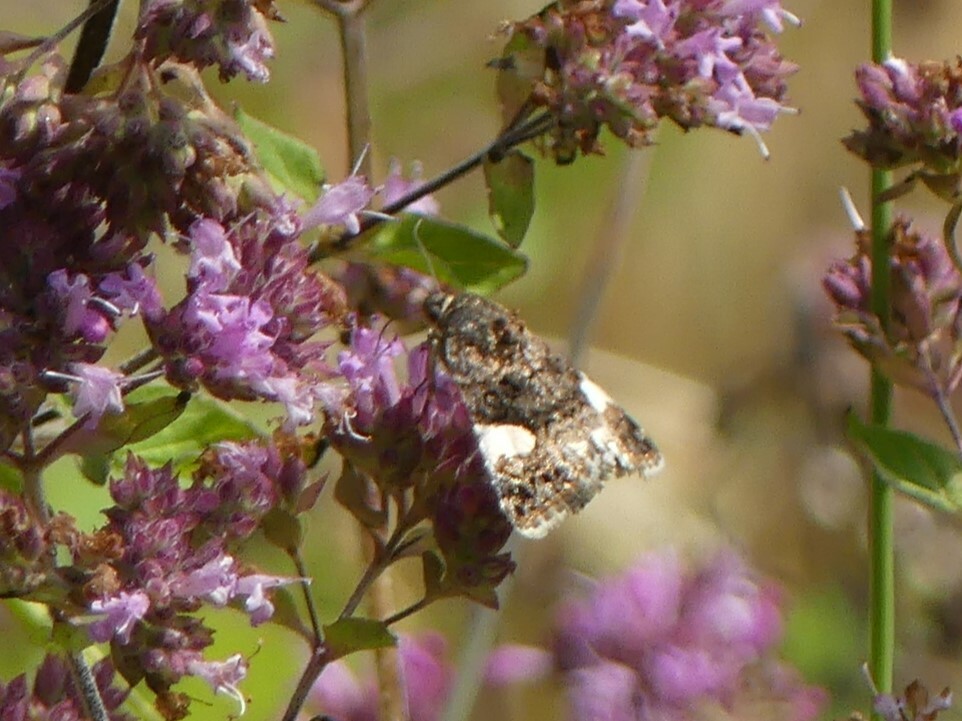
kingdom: Animalia
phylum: Arthropoda
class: Insecta
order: Lepidoptera
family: Erebidae
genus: Tyta
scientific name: Tyta luctuosa
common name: Four-spotted
